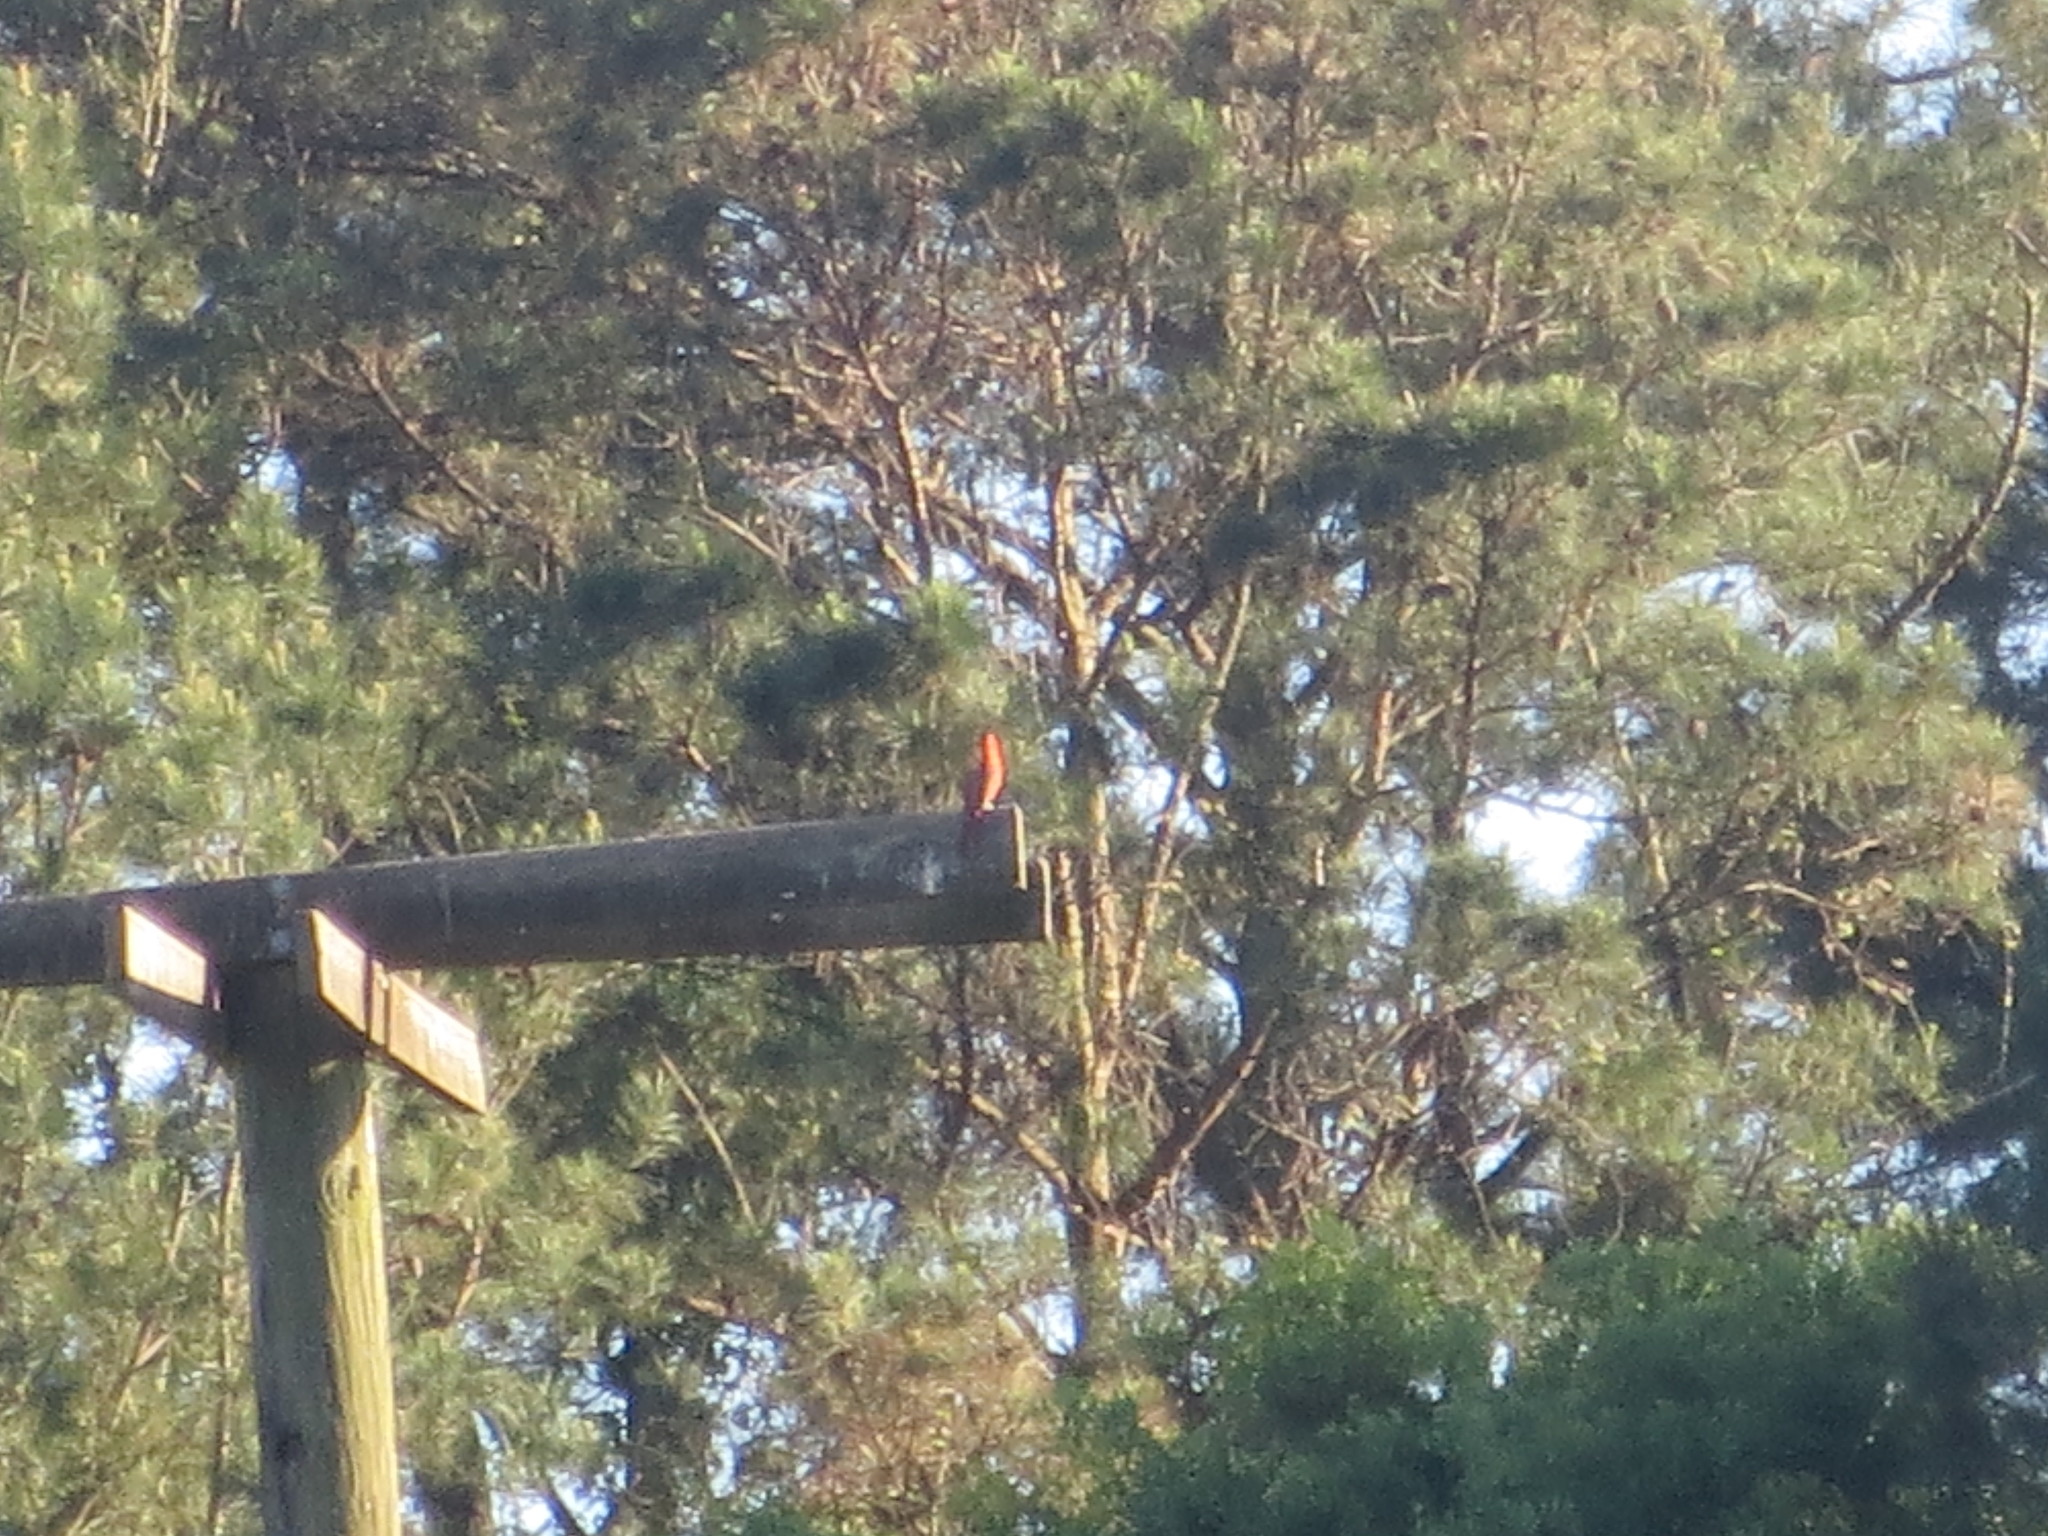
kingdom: Animalia
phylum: Chordata
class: Aves
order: Passeriformes
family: Cardinalidae
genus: Cardinalis
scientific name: Cardinalis cardinalis
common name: Northern cardinal
